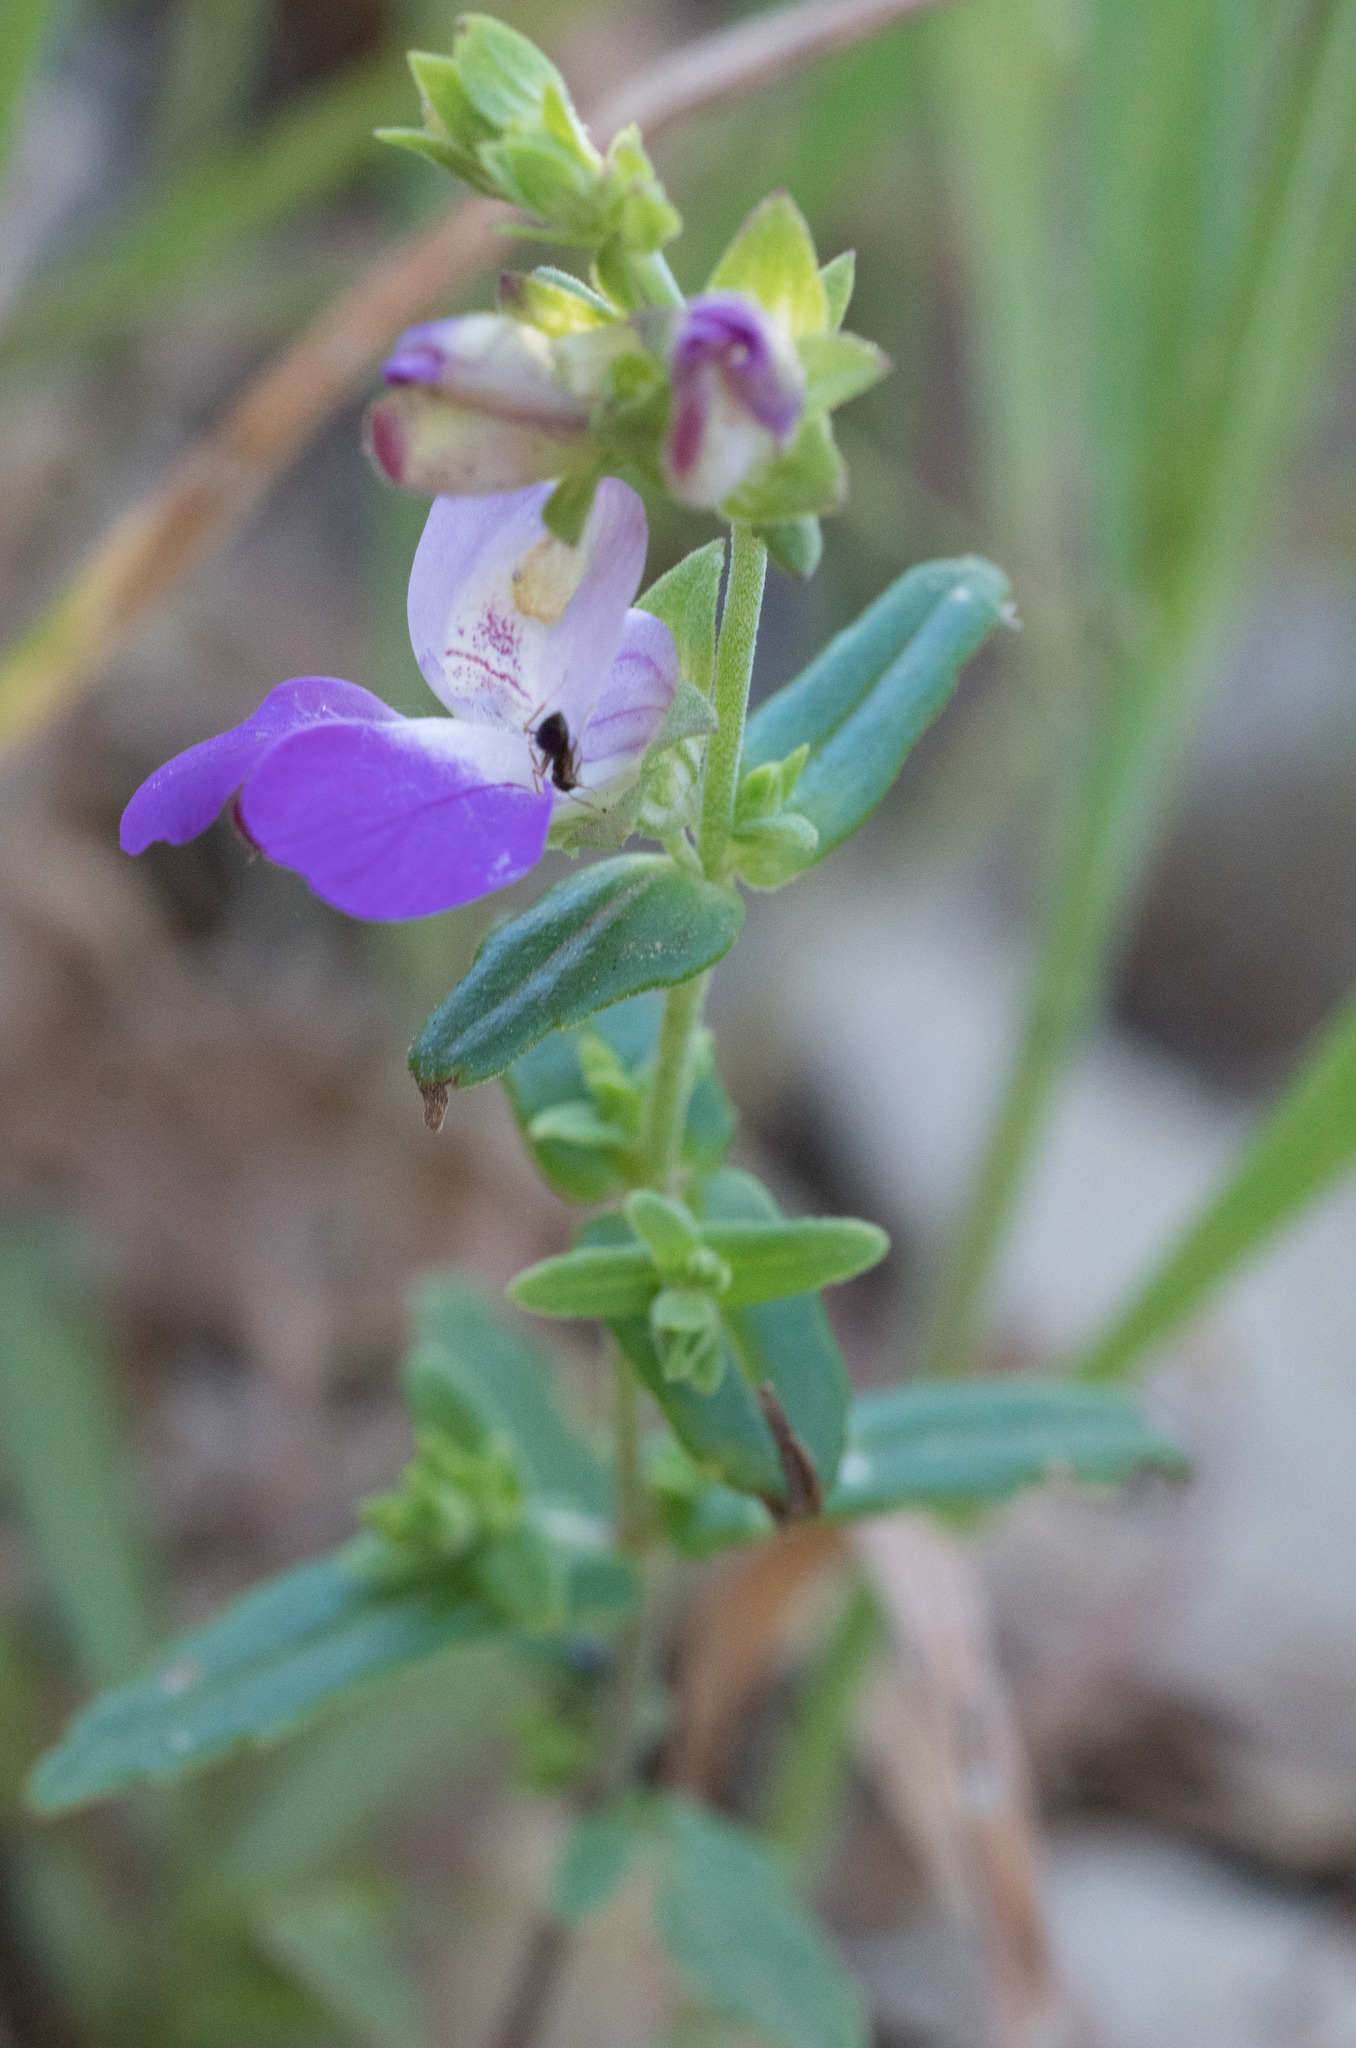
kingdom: Plantae
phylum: Tracheophyta
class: Magnoliopsida
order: Lamiales
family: Plantaginaceae
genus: Collinsia
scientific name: Collinsia heterophylla
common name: Chinese-houses
